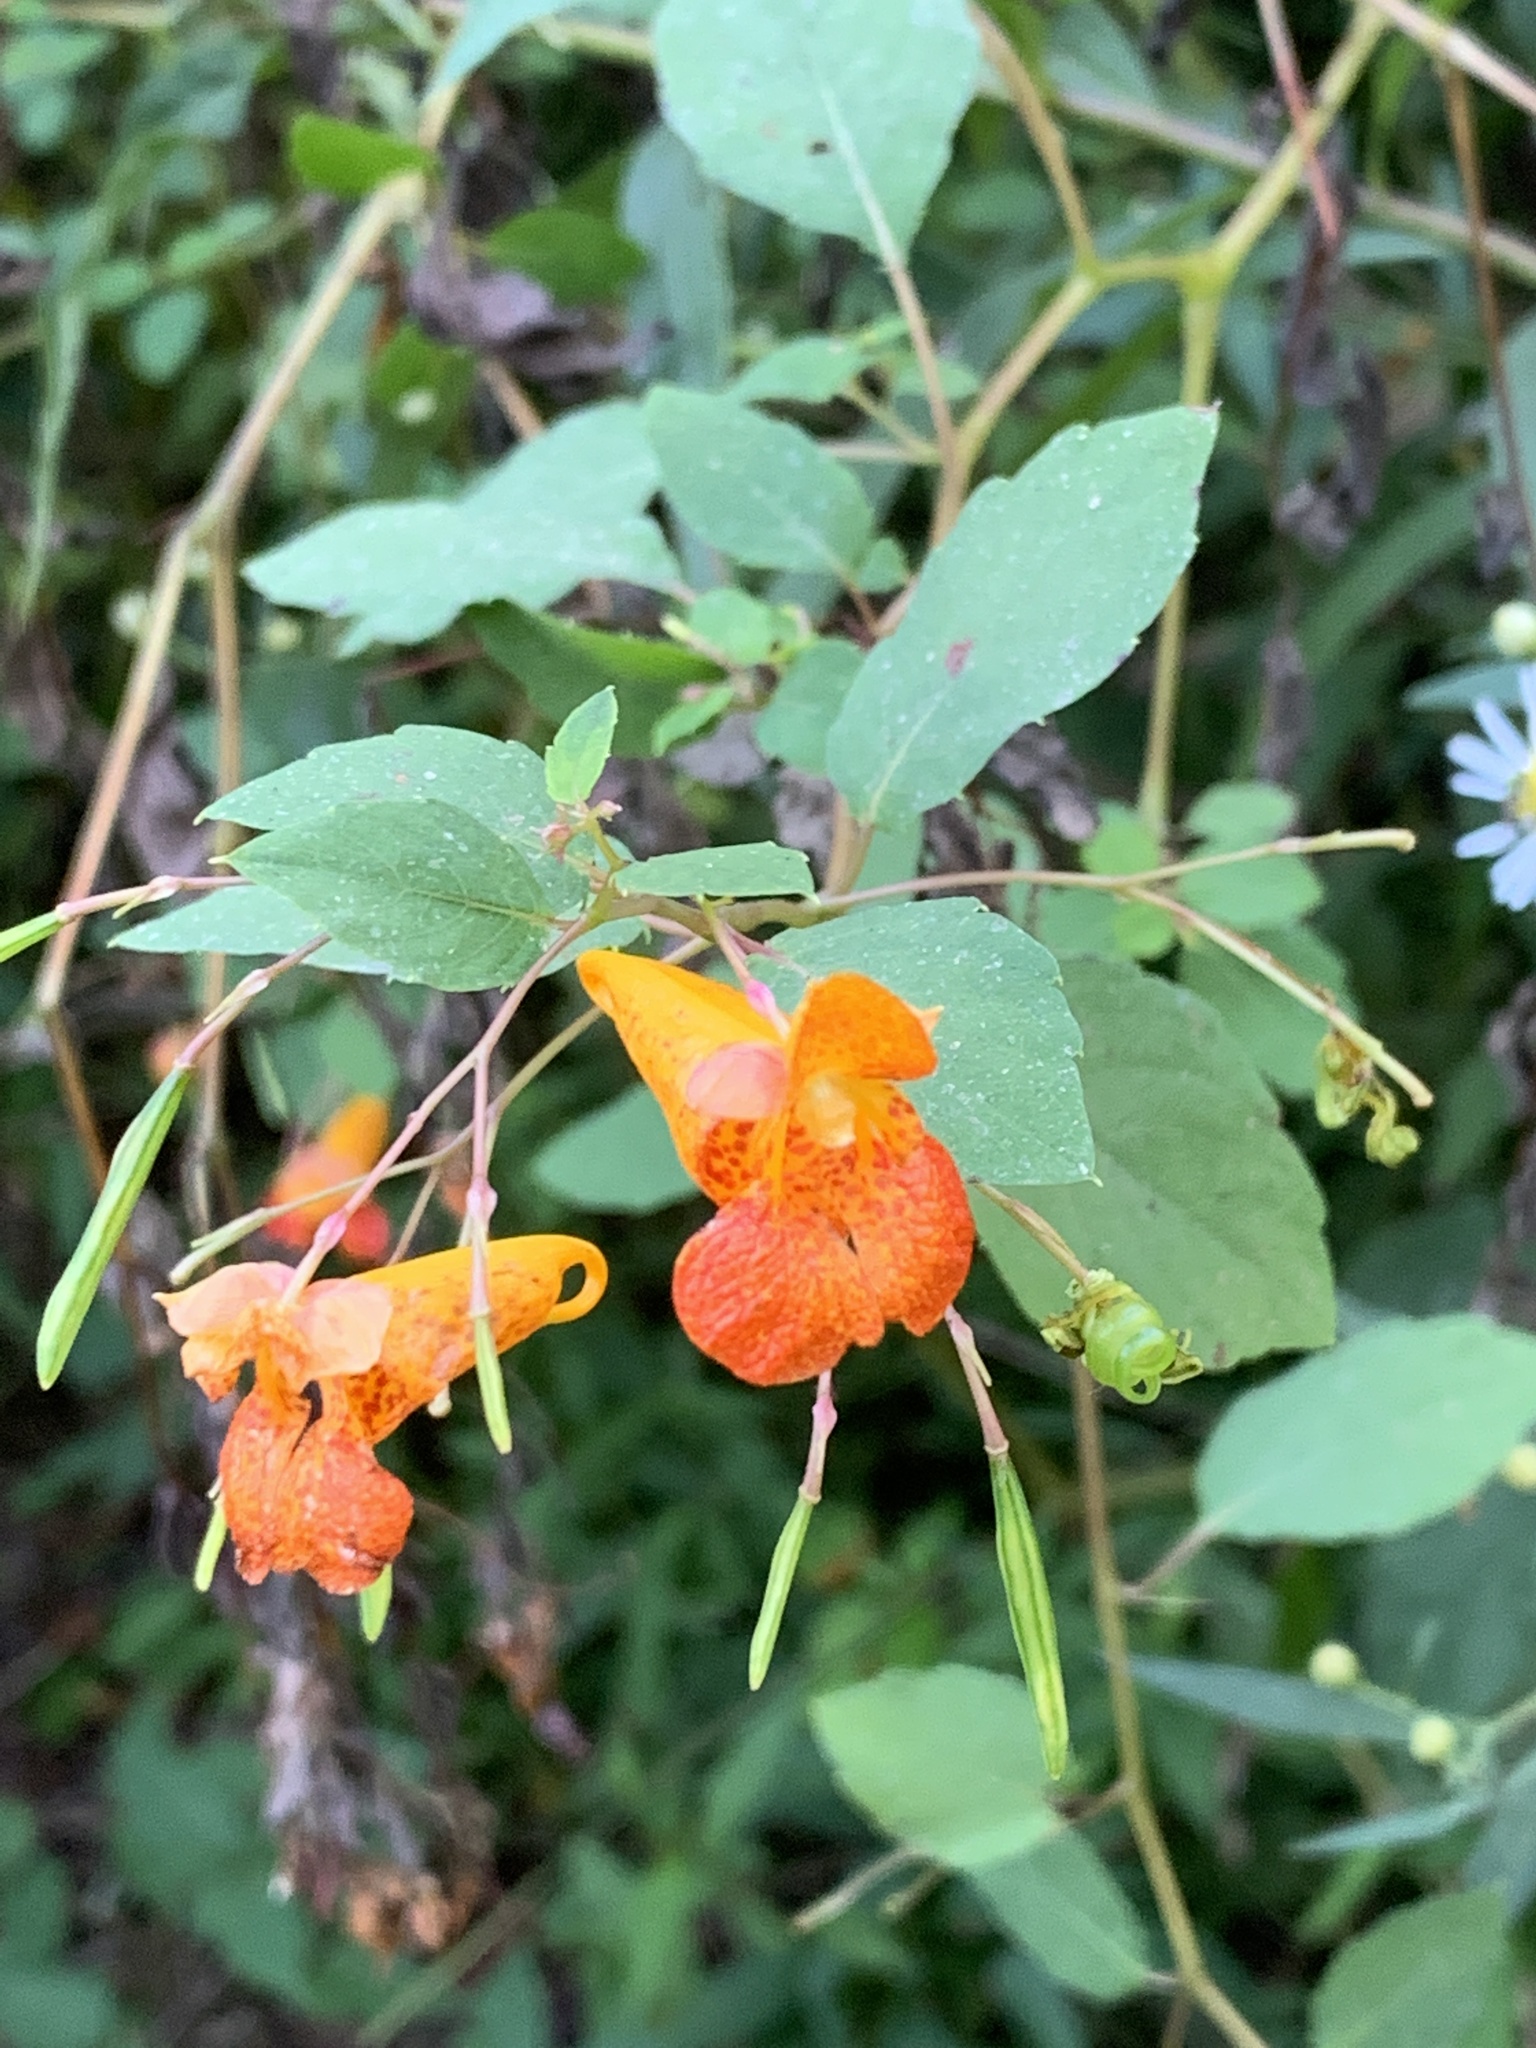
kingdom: Plantae
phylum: Tracheophyta
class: Magnoliopsida
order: Ericales
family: Balsaminaceae
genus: Impatiens
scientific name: Impatiens capensis
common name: Orange balsam
